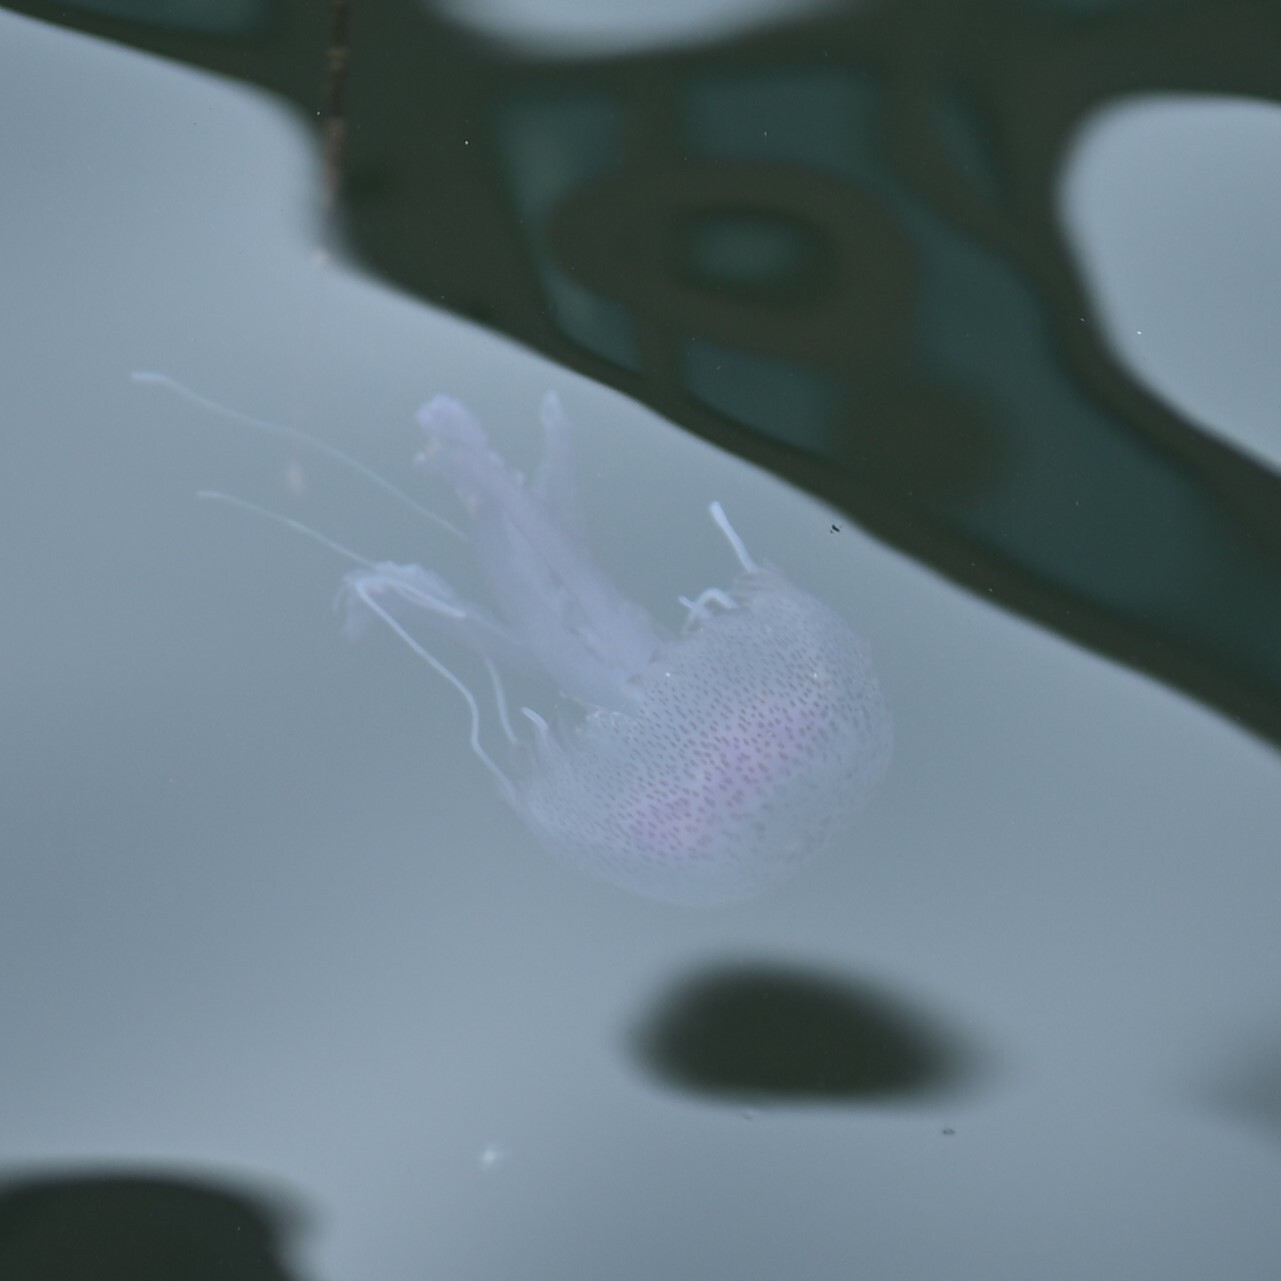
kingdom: Animalia
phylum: Cnidaria
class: Scyphozoa
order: Semaeostomeae
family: Pelagiidae
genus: Pelagia
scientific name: Pelagia noctiluca
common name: Mauve stinger
